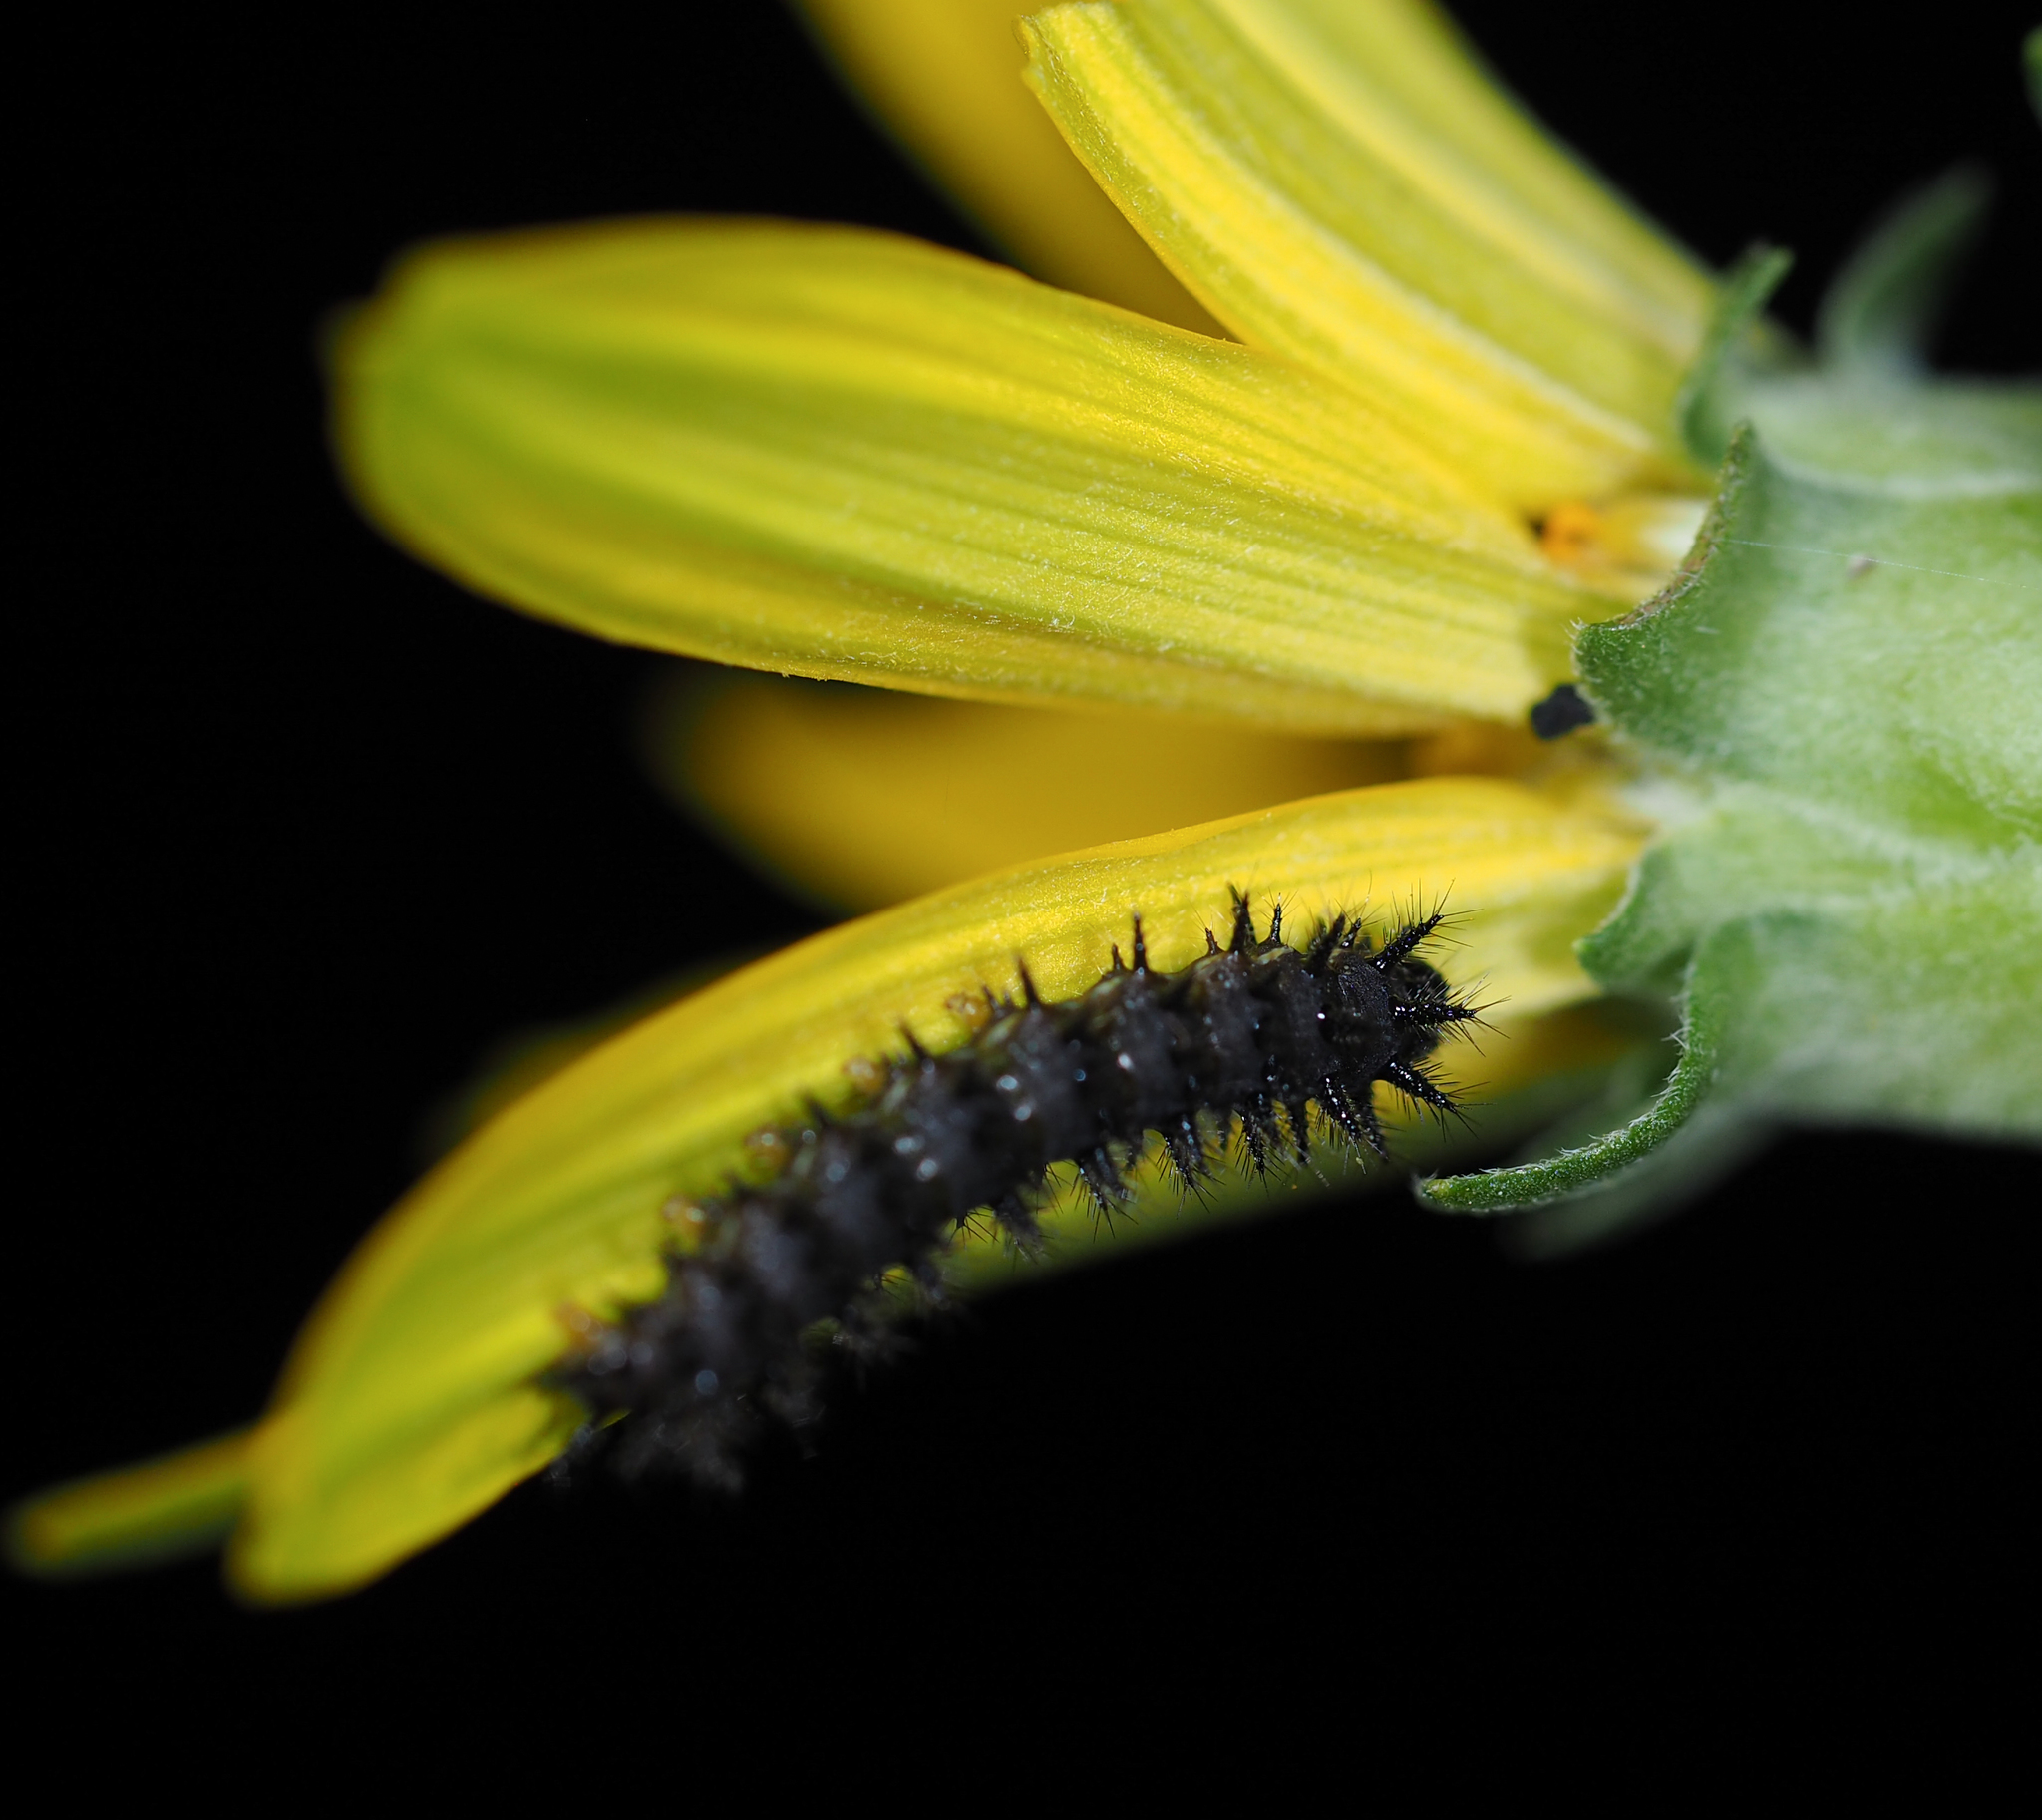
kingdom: Animalia
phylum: Arthropoda
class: Insecta
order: Lepidoptera
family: Nymphalidae
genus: Chlosyne
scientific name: Chlosyne nycteis
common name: Silvery checkerspot
